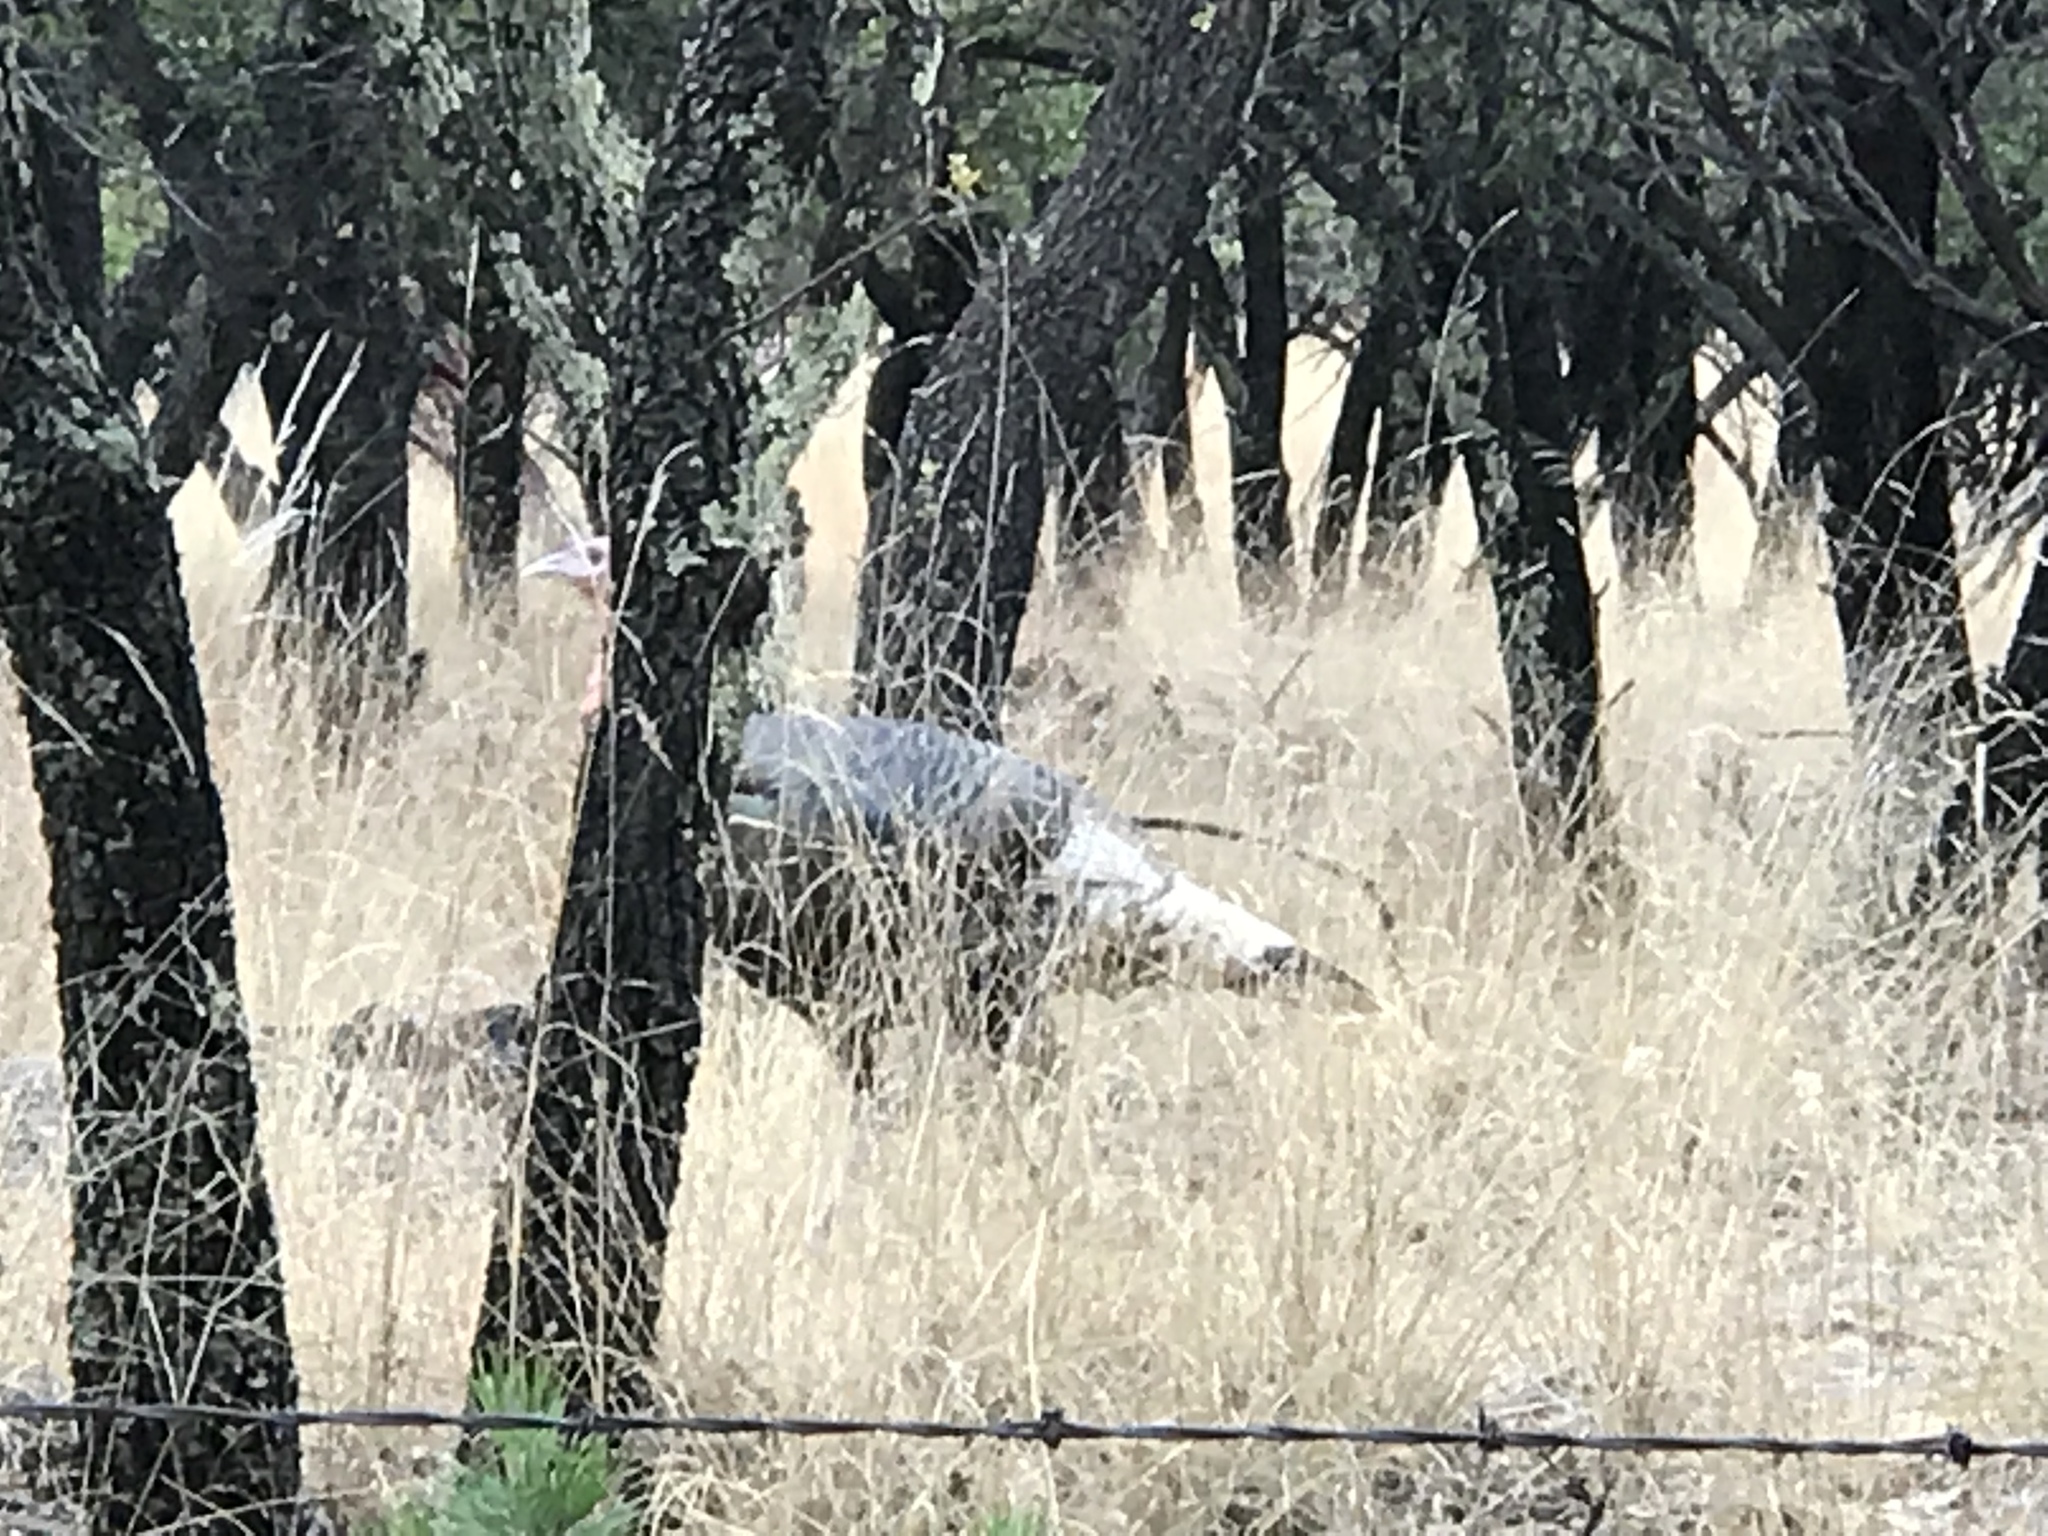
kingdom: Animalia
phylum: Chordata
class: Aves
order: Galliformes
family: Phasianidae
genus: Meleagris
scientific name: Meleagris gallopavo
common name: Wild turkey
